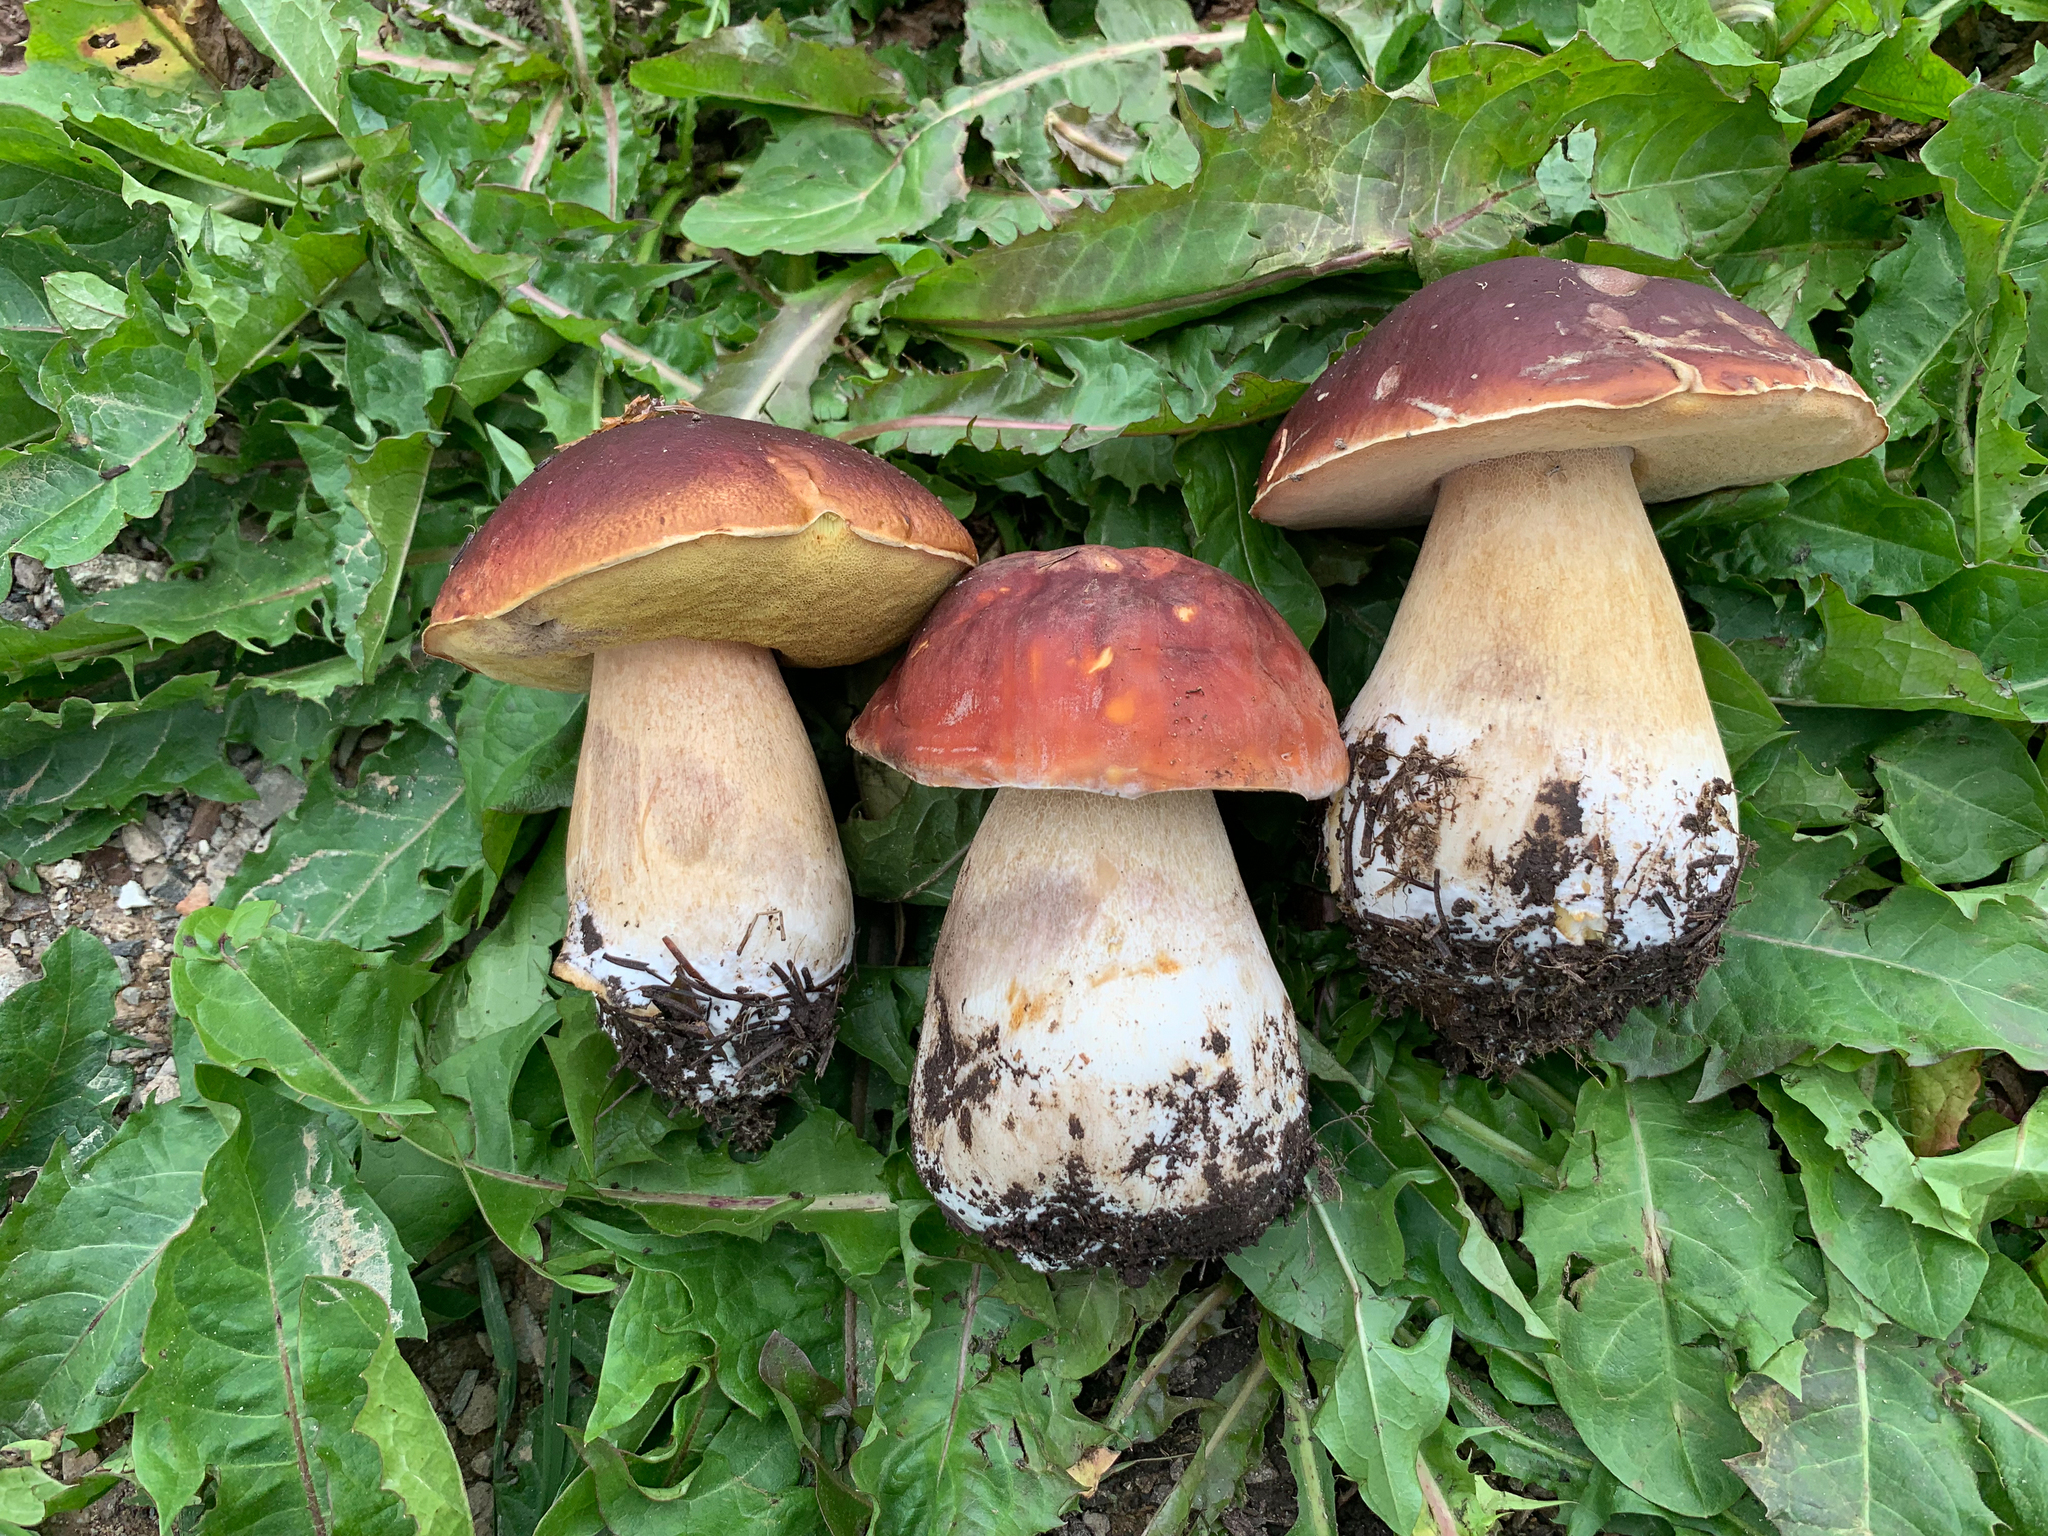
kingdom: Fungi
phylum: Basidiomycota
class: Agaricomycetes
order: Boletales
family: Boletaceae
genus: Boletus
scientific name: Boletus rubriceps
